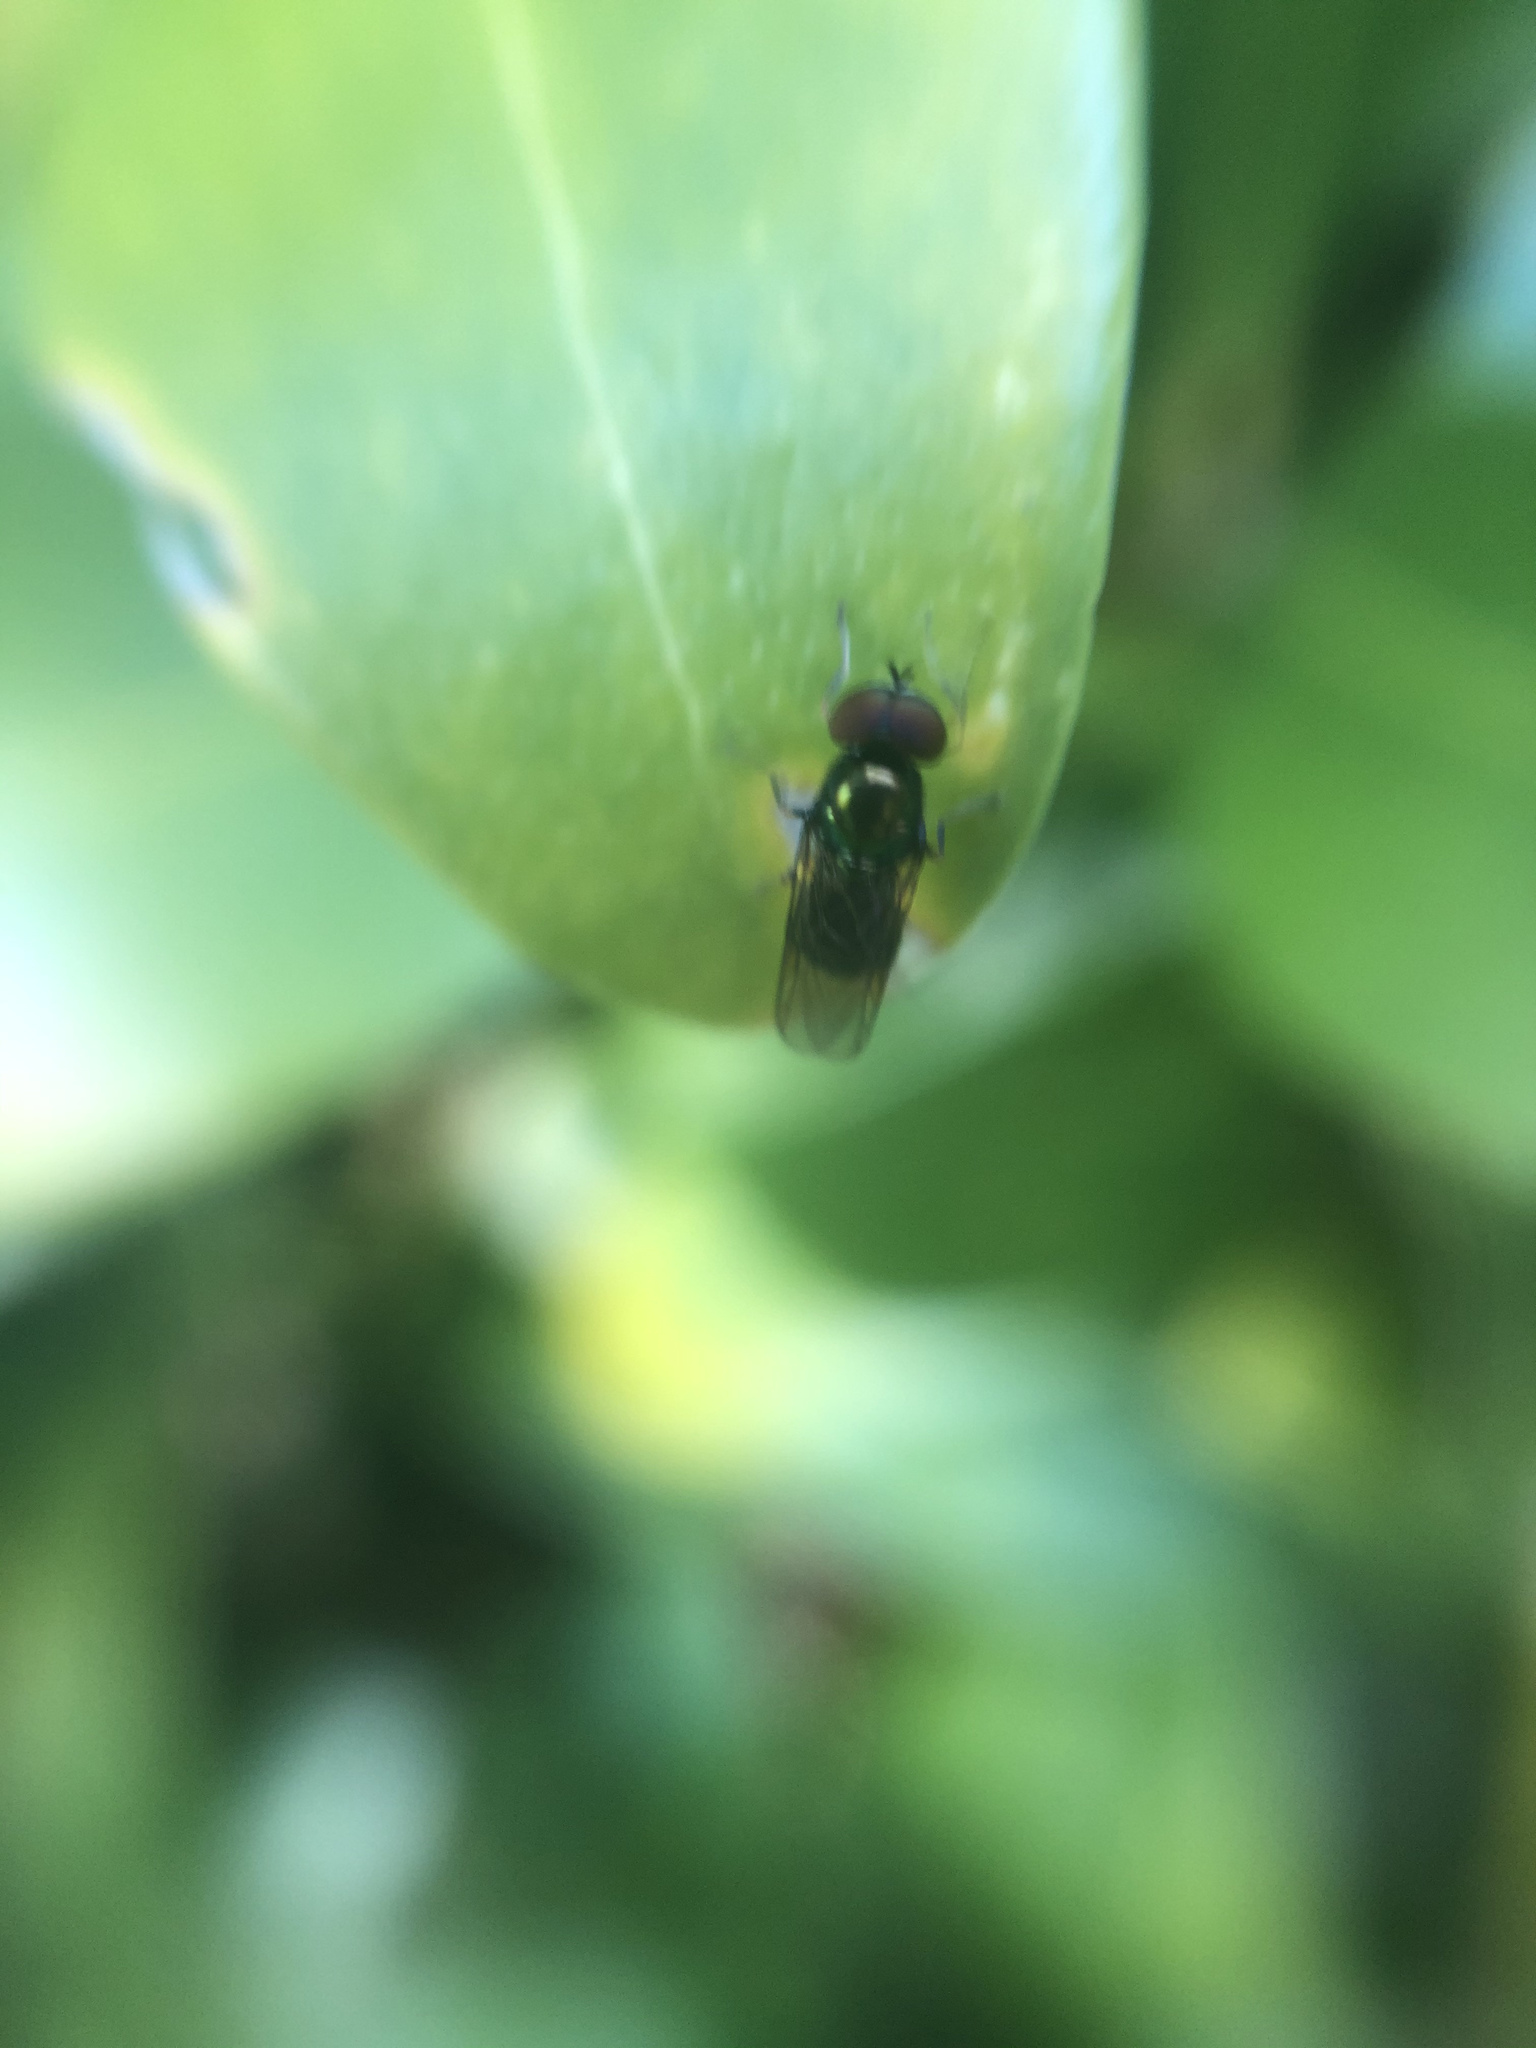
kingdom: Animalia
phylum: Arthropoda
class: Insecta
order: Diptera
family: Stratiomyidae
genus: Microchrysa
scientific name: Microchrysa polita
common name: Black-horned gem
